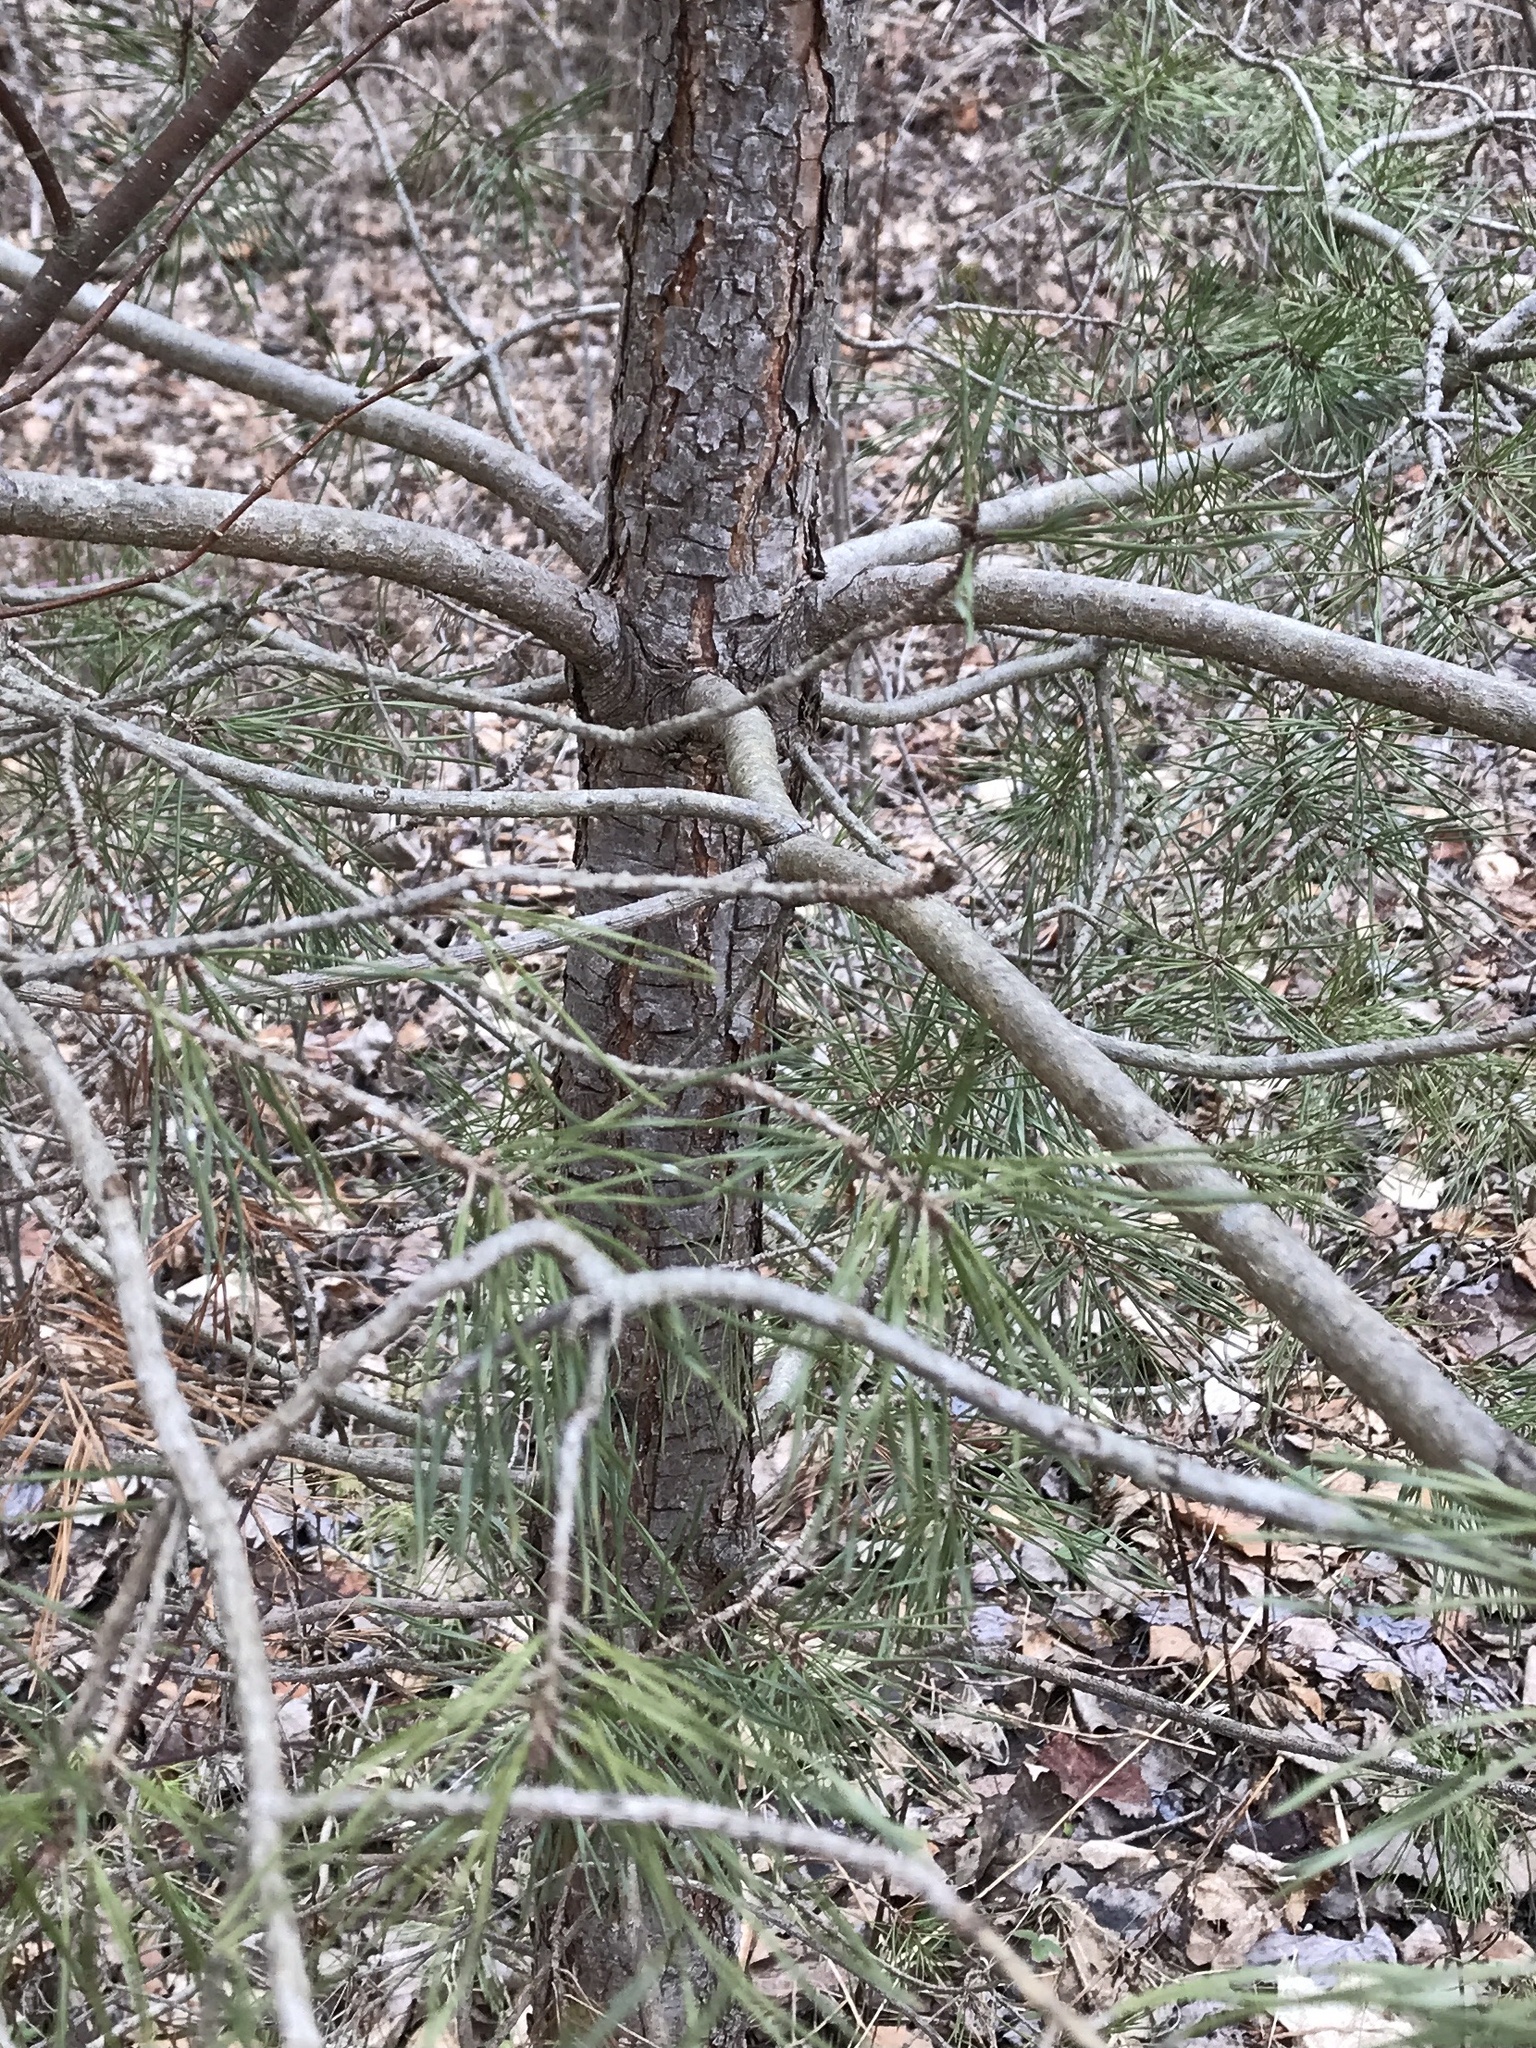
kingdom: Plantae
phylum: Tracheophyta
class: Pinopsida
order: Pinales
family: Pinaceae
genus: Pinus
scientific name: Pinus sylvestris
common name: Scots pine
